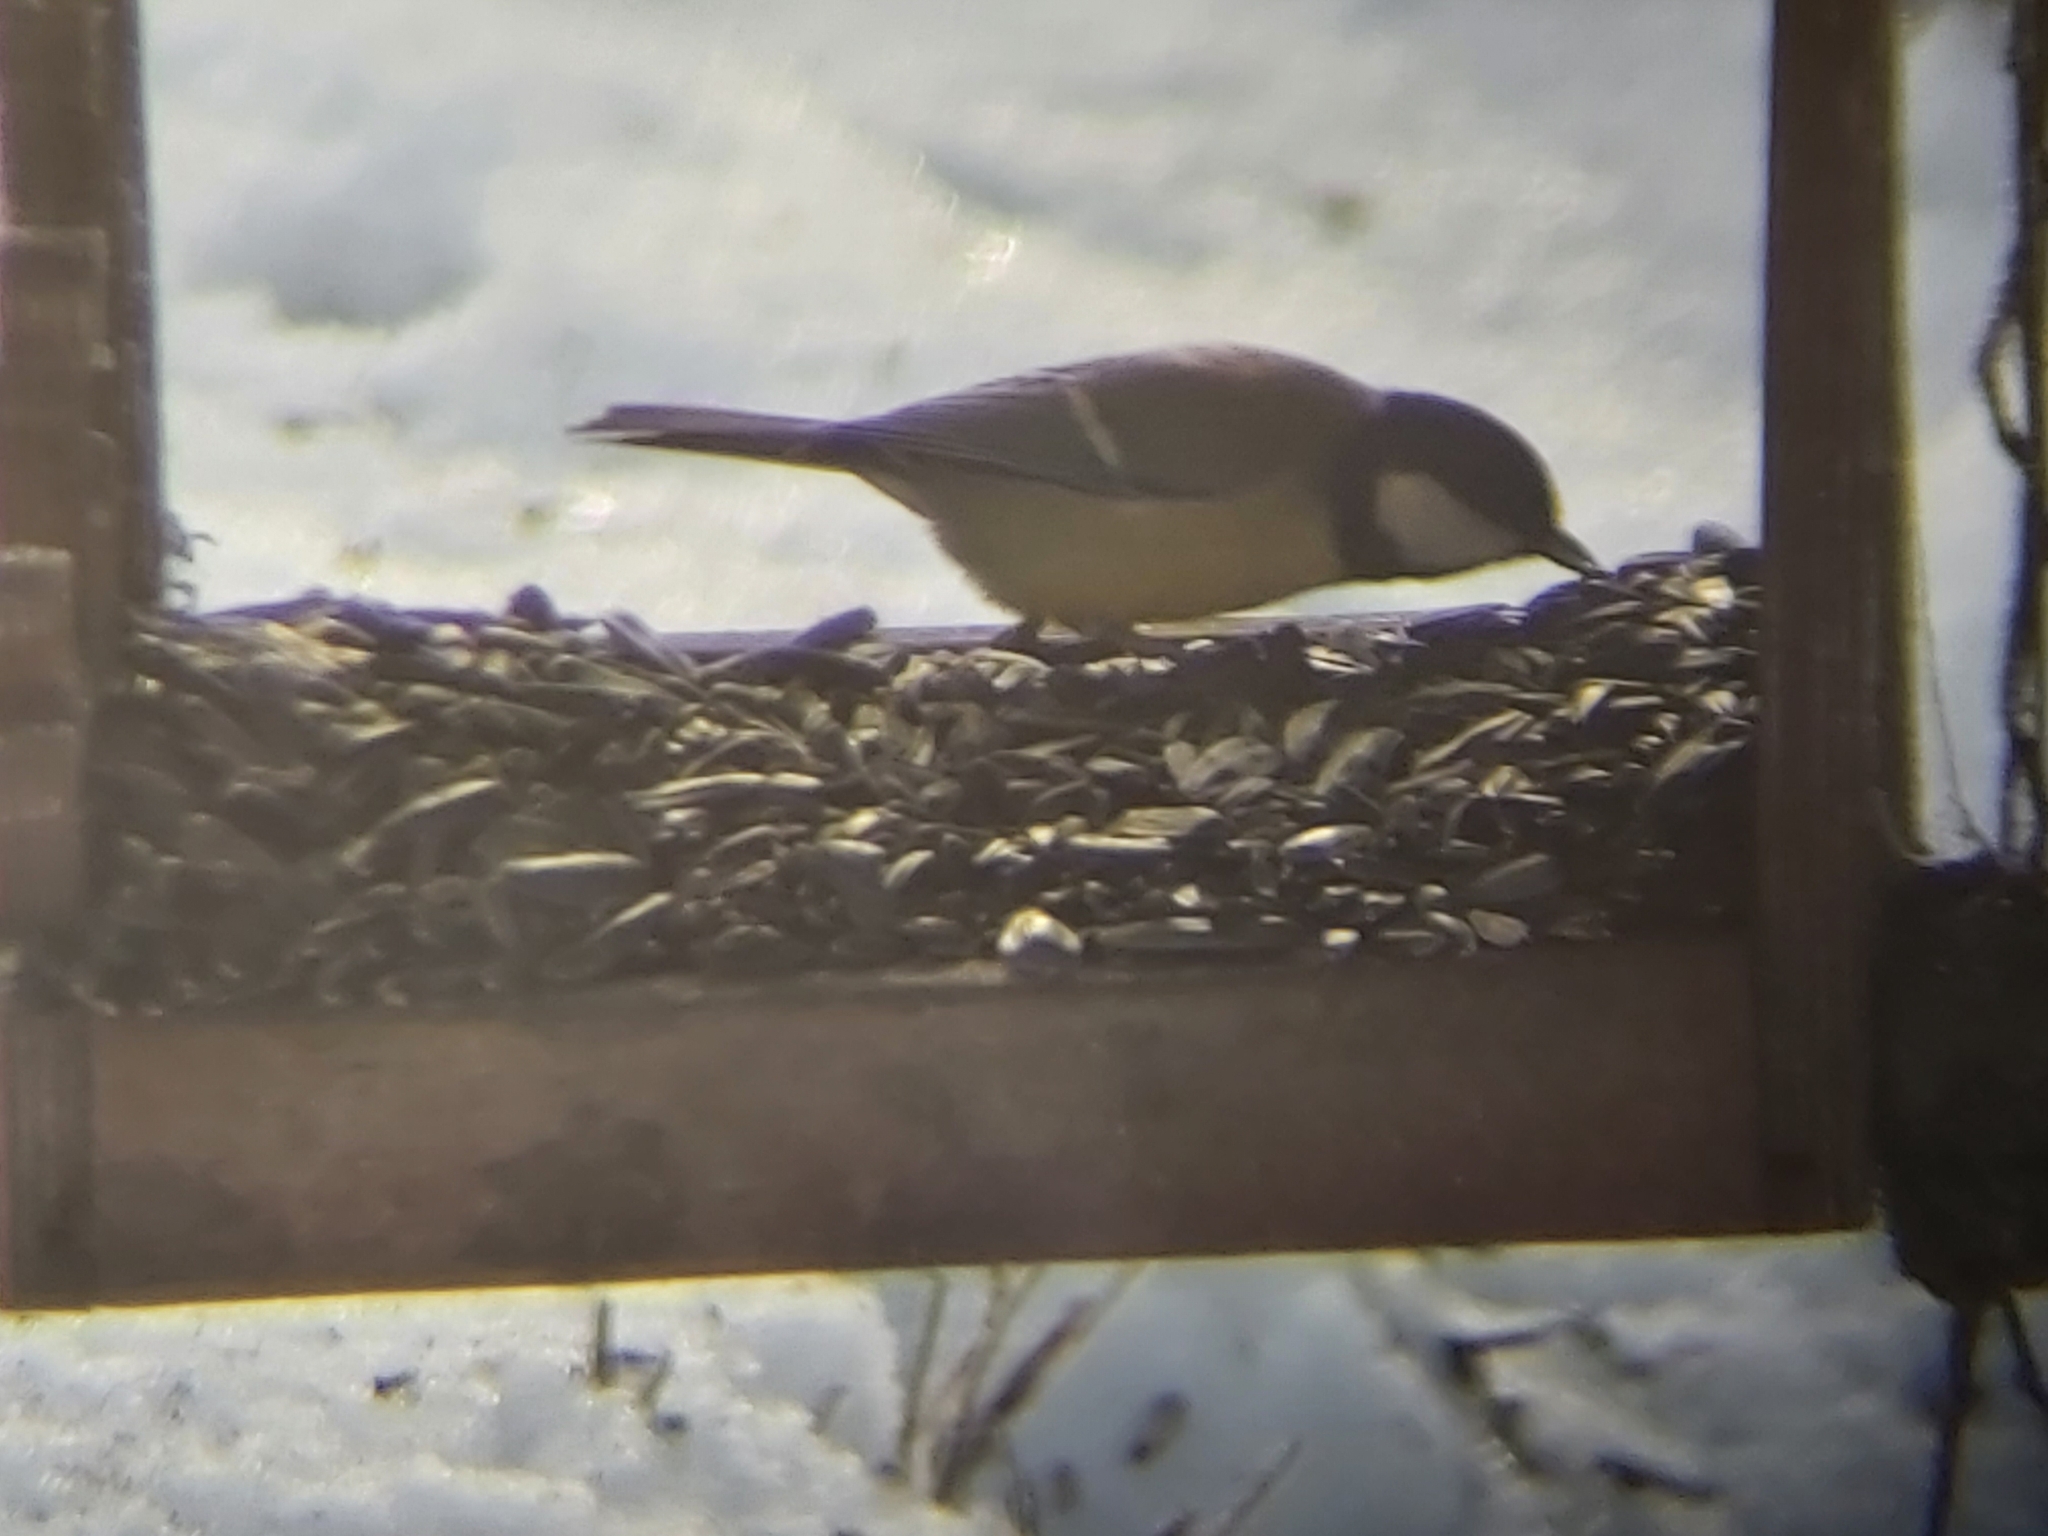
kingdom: Animalia
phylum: Chordata
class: Aves
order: Passeriformes
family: Paridae
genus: Parus
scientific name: Parus major
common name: Great tit
